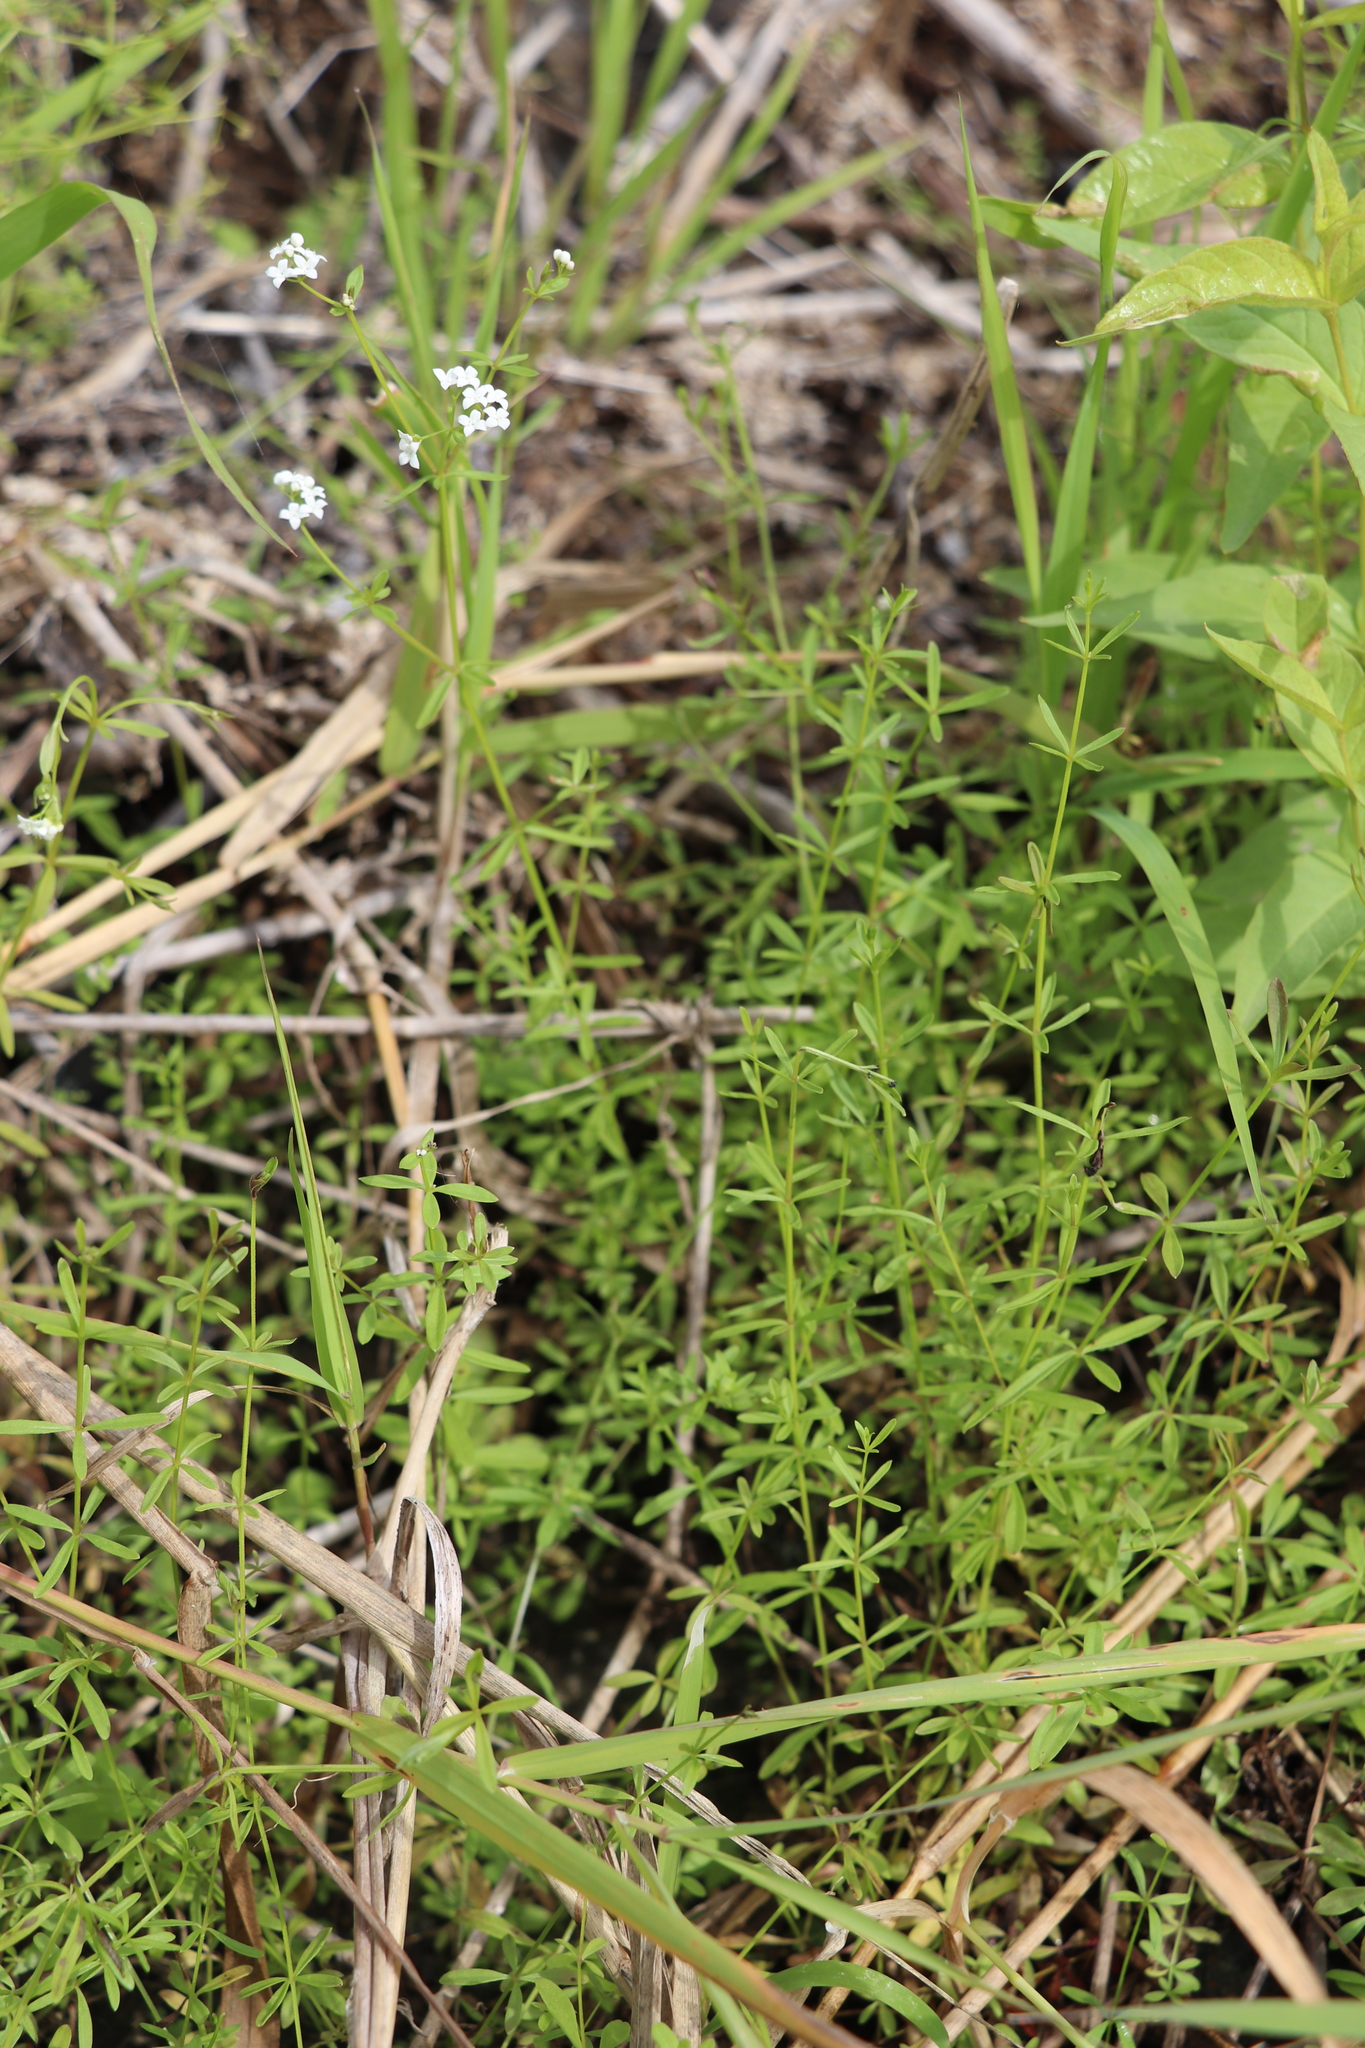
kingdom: Plantae
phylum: Tracheophyta
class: Magnoliopsida
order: Gentianales
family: Rubiaceae
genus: Galium
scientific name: Galium palustre
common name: Common marsh-bedstraw
